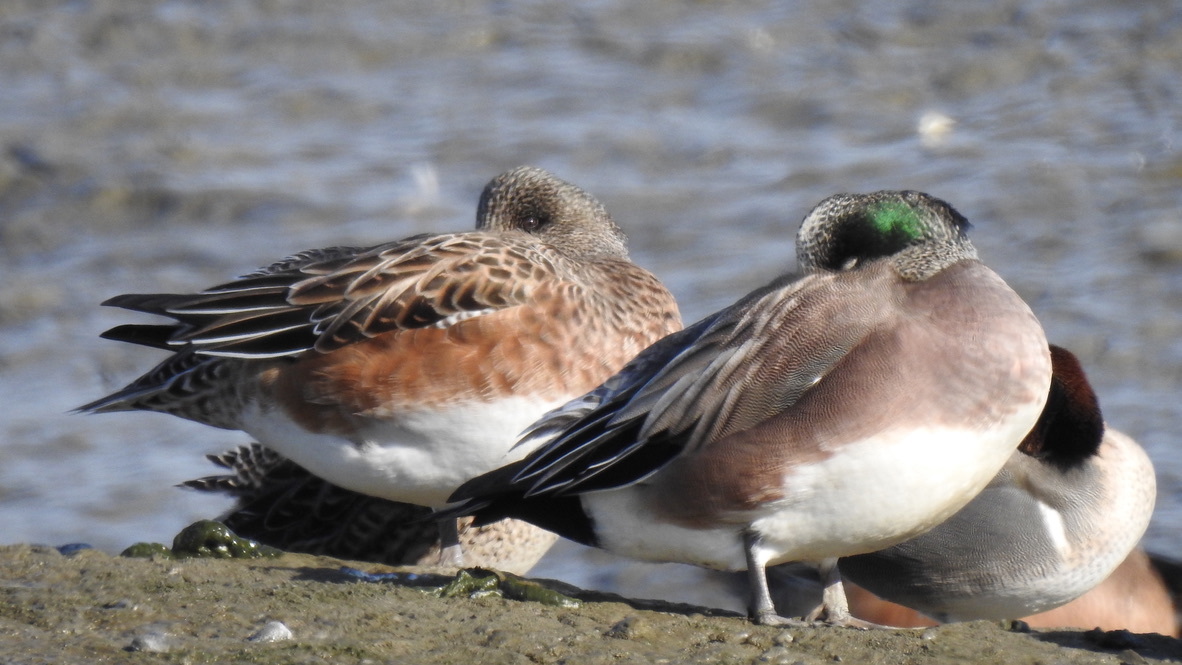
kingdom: Animalia
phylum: Chordata
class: Aves
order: Anseriformes
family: Anatidae
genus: Mareca
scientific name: Mareca americana
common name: American wigeon
